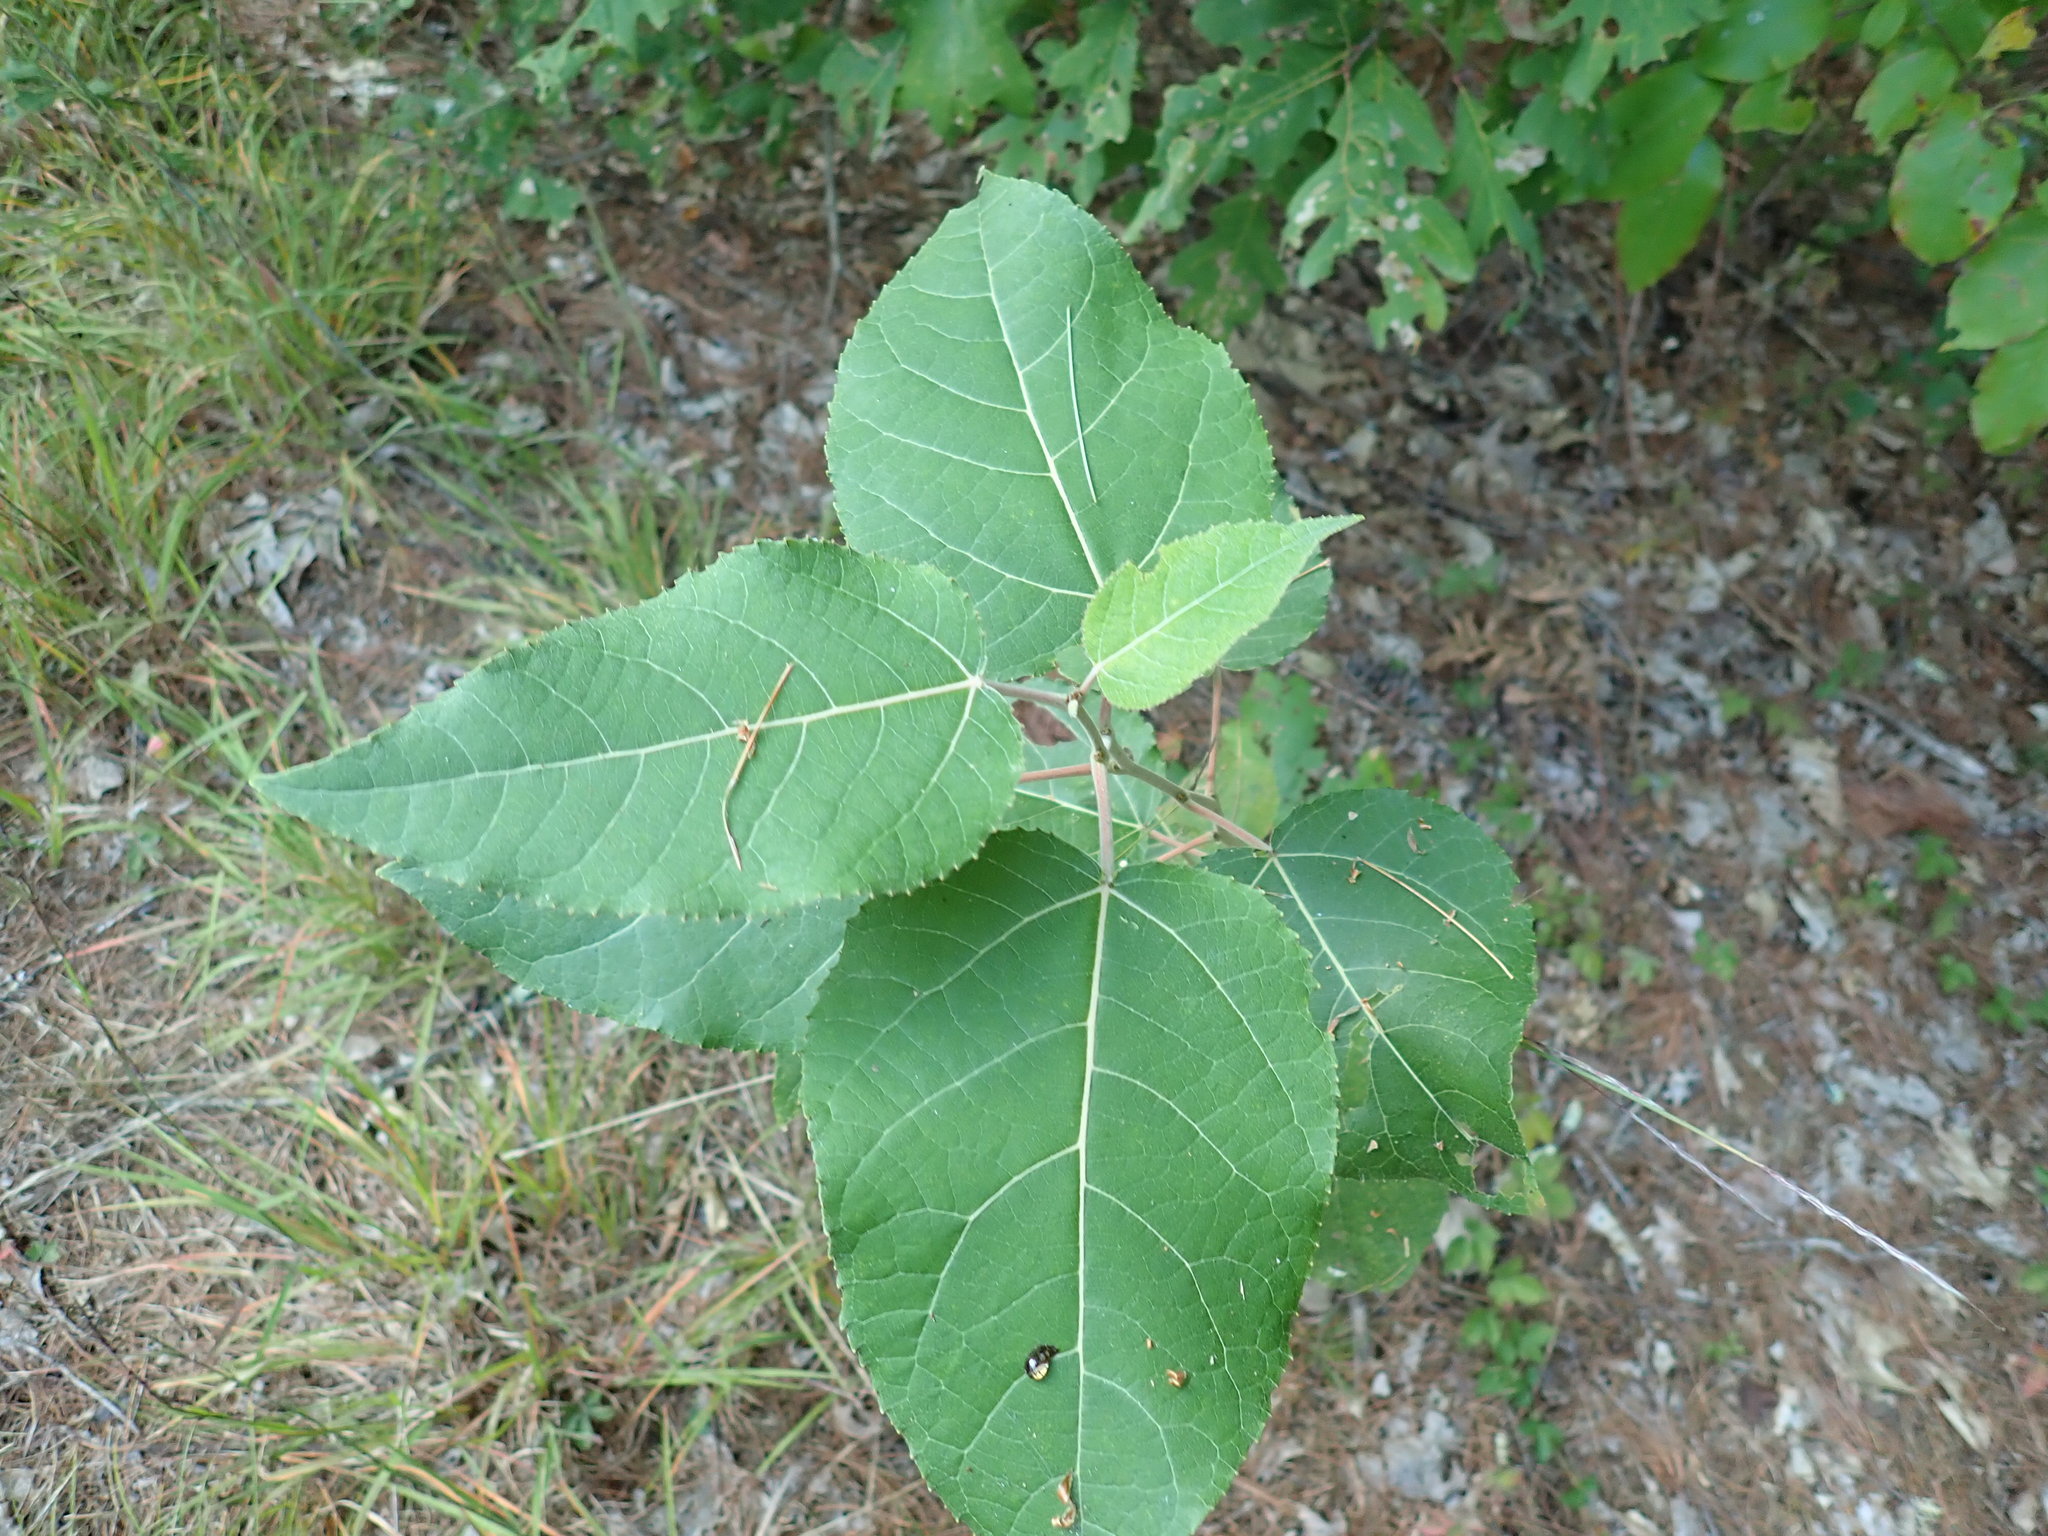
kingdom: Plantae
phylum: Tracheophyta
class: Magnoliopsida
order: Malpighiales
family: Salicaceae
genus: Populus
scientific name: Populus
